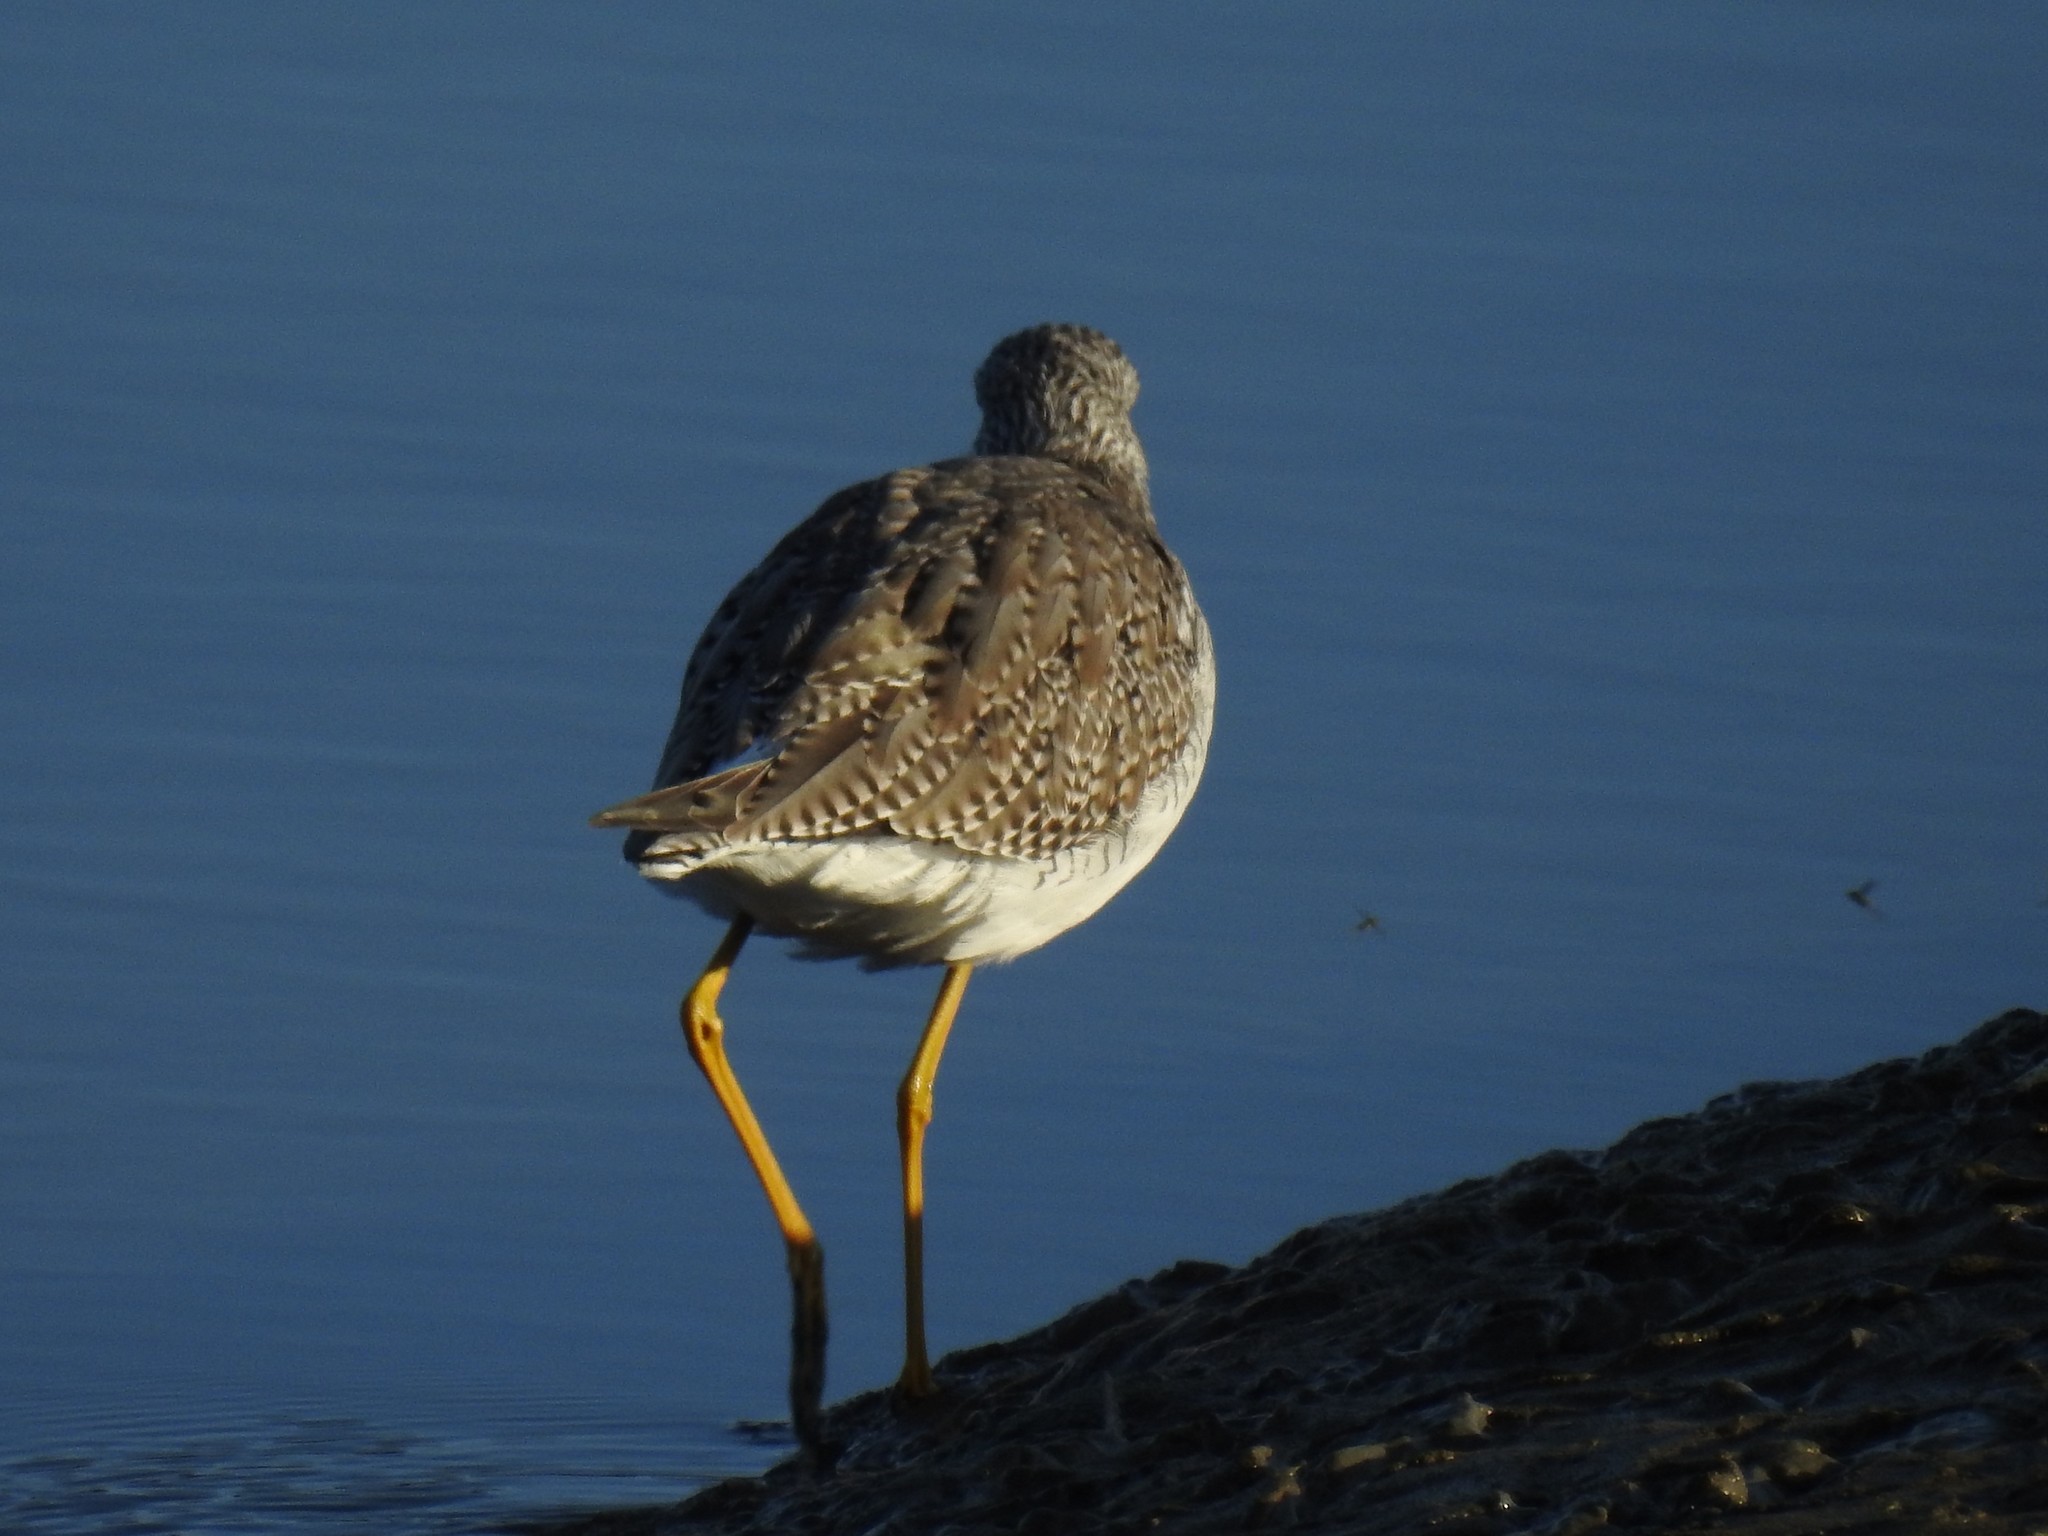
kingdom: Animalia
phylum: Chordata
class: Aves
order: Charadriiformes
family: Scolopacidae
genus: Tringa
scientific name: Tringa melanoleuca
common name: Greater yellowlegs
